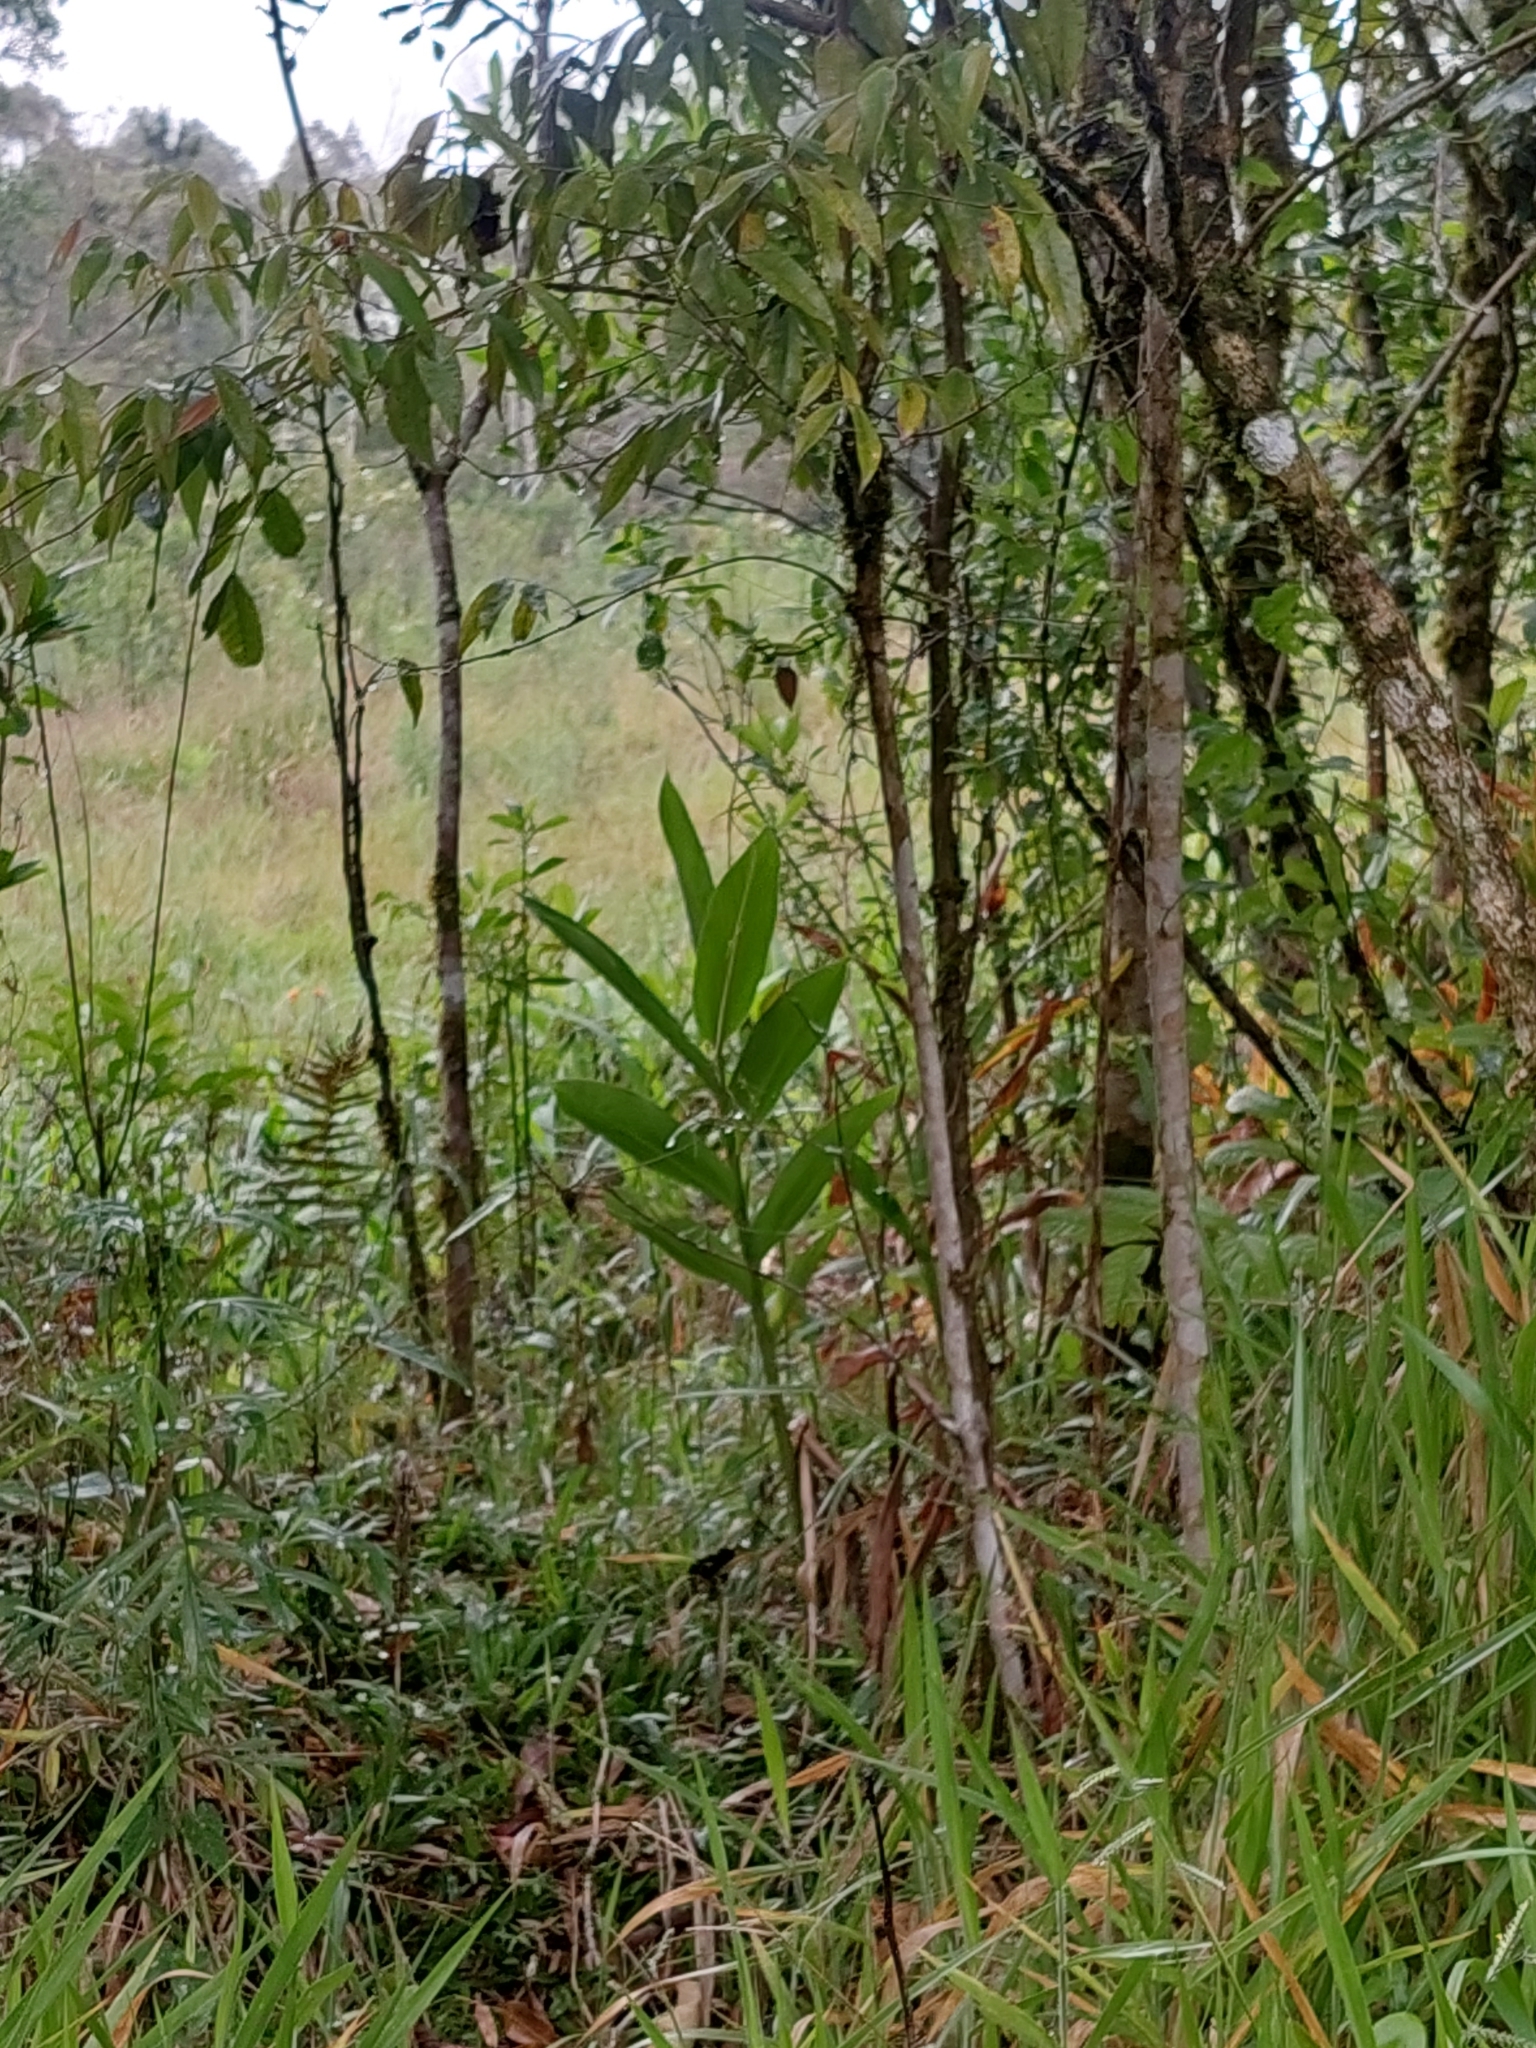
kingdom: Plantae
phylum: Tracheophyta
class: Liliopsida
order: Zingiberales
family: Zingiberaceae
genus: Hedychium
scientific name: Hedychium coronarium
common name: White garland-lily
